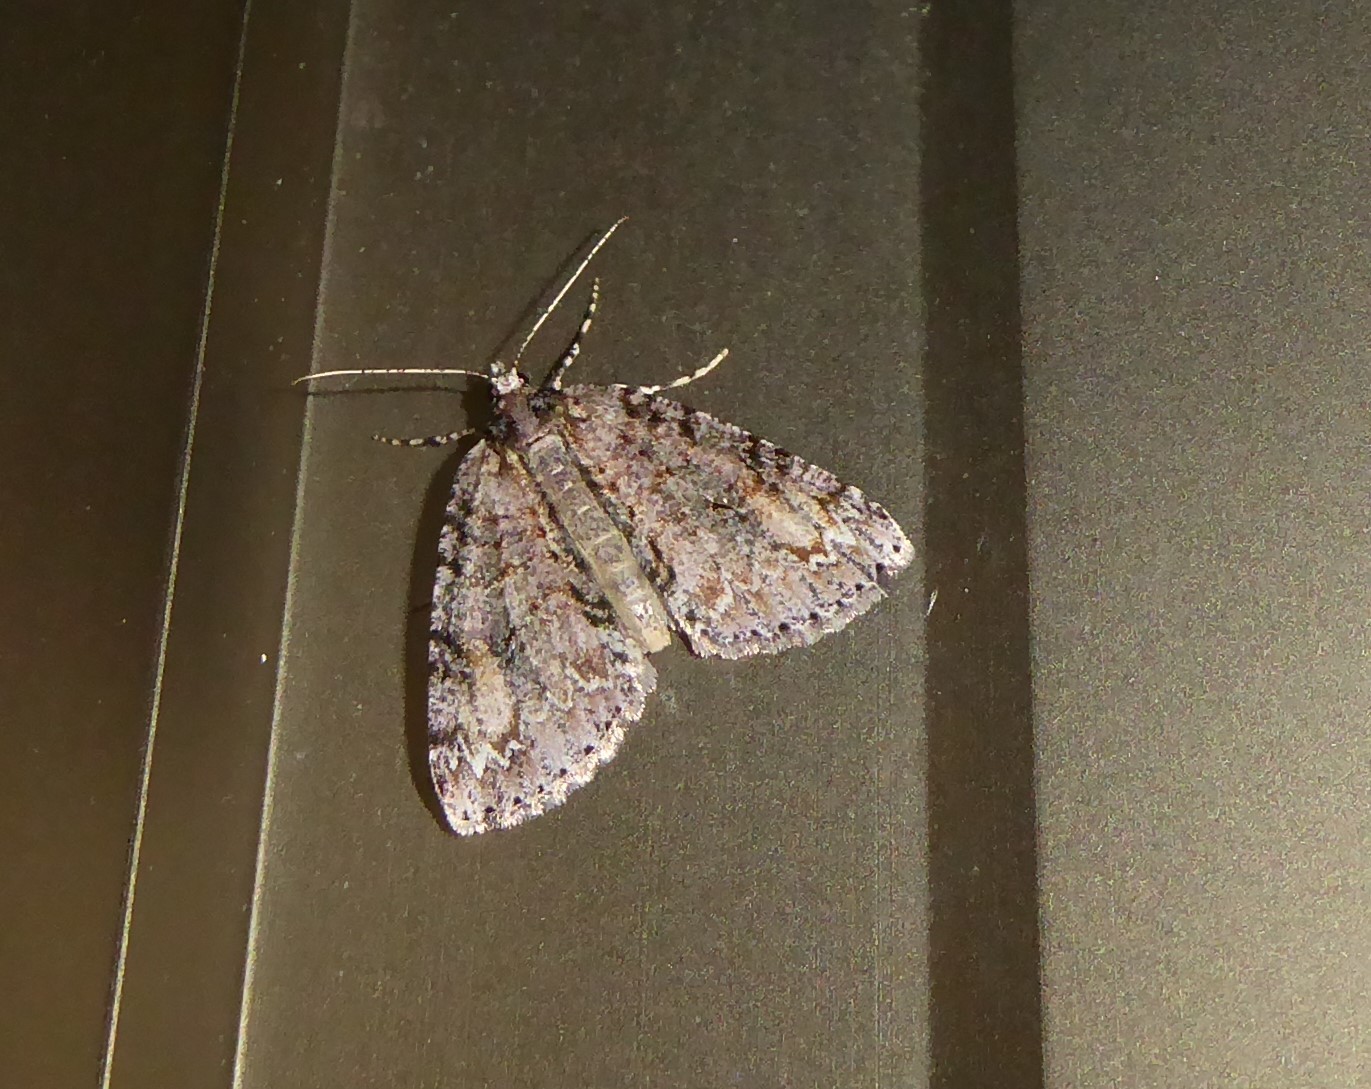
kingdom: Animalia
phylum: Arthropoda
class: Insecta
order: Lepidoptera
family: Geometridae
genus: Pseudocoremia
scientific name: Pseudocoremia suavis
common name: Common forest looper
